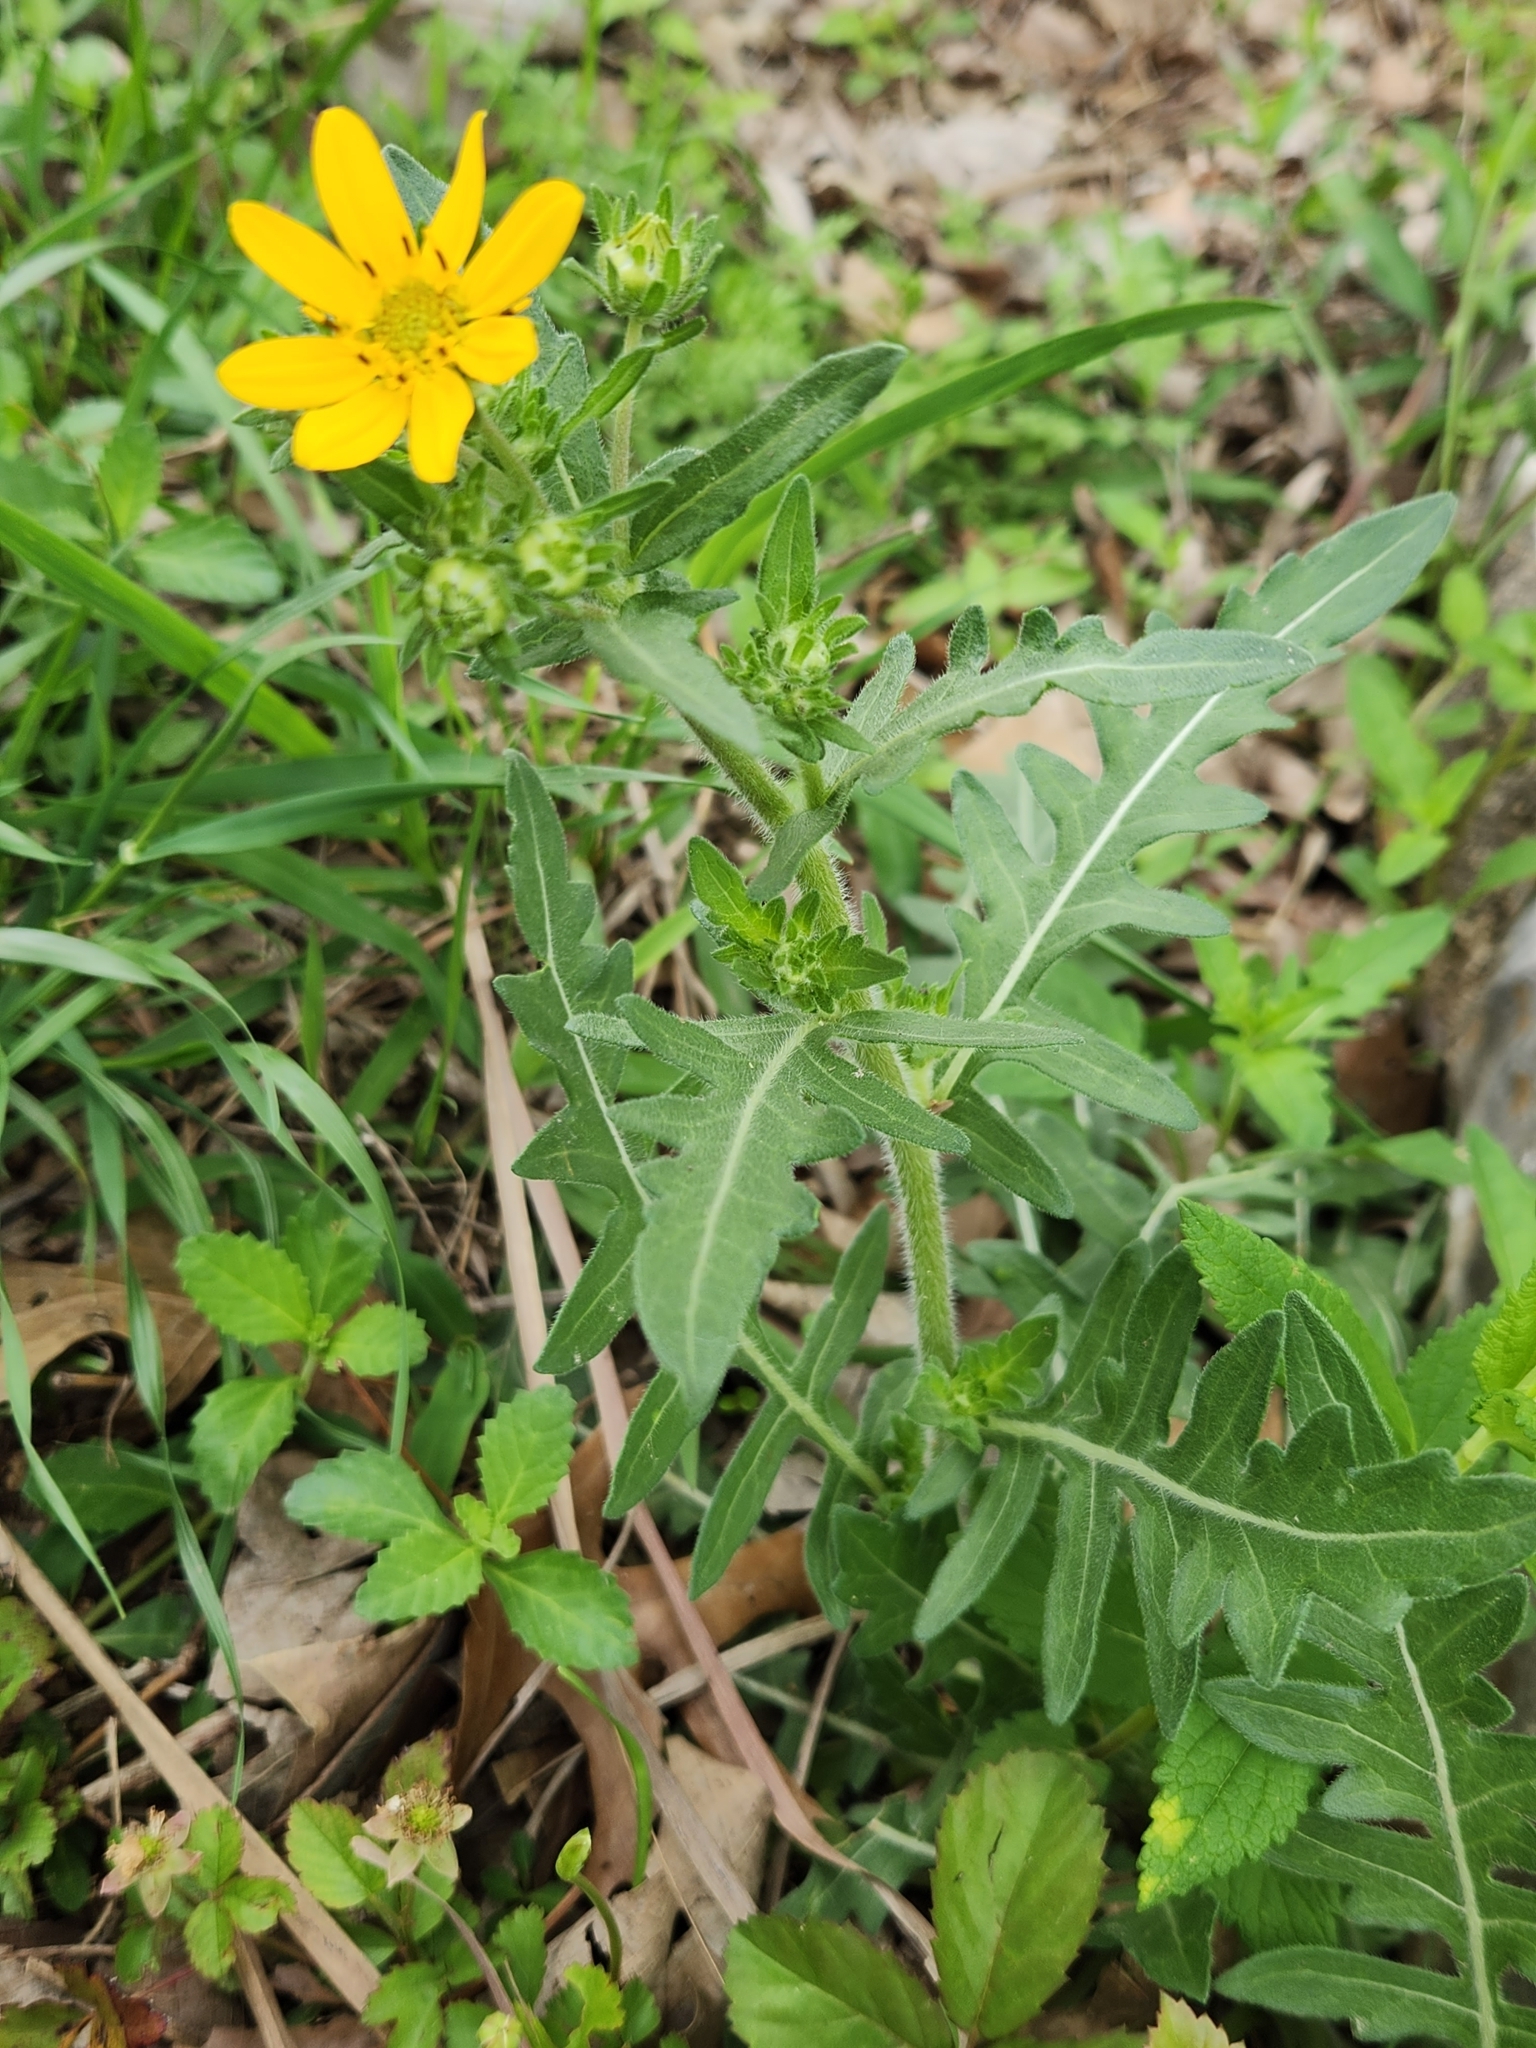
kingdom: Plantae
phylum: Tracheophyta
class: Magnoliopsida
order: Asterales
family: Asteraceae
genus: Engelmannia
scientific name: Engelmannia peristenia
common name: Engelmann's daisy
